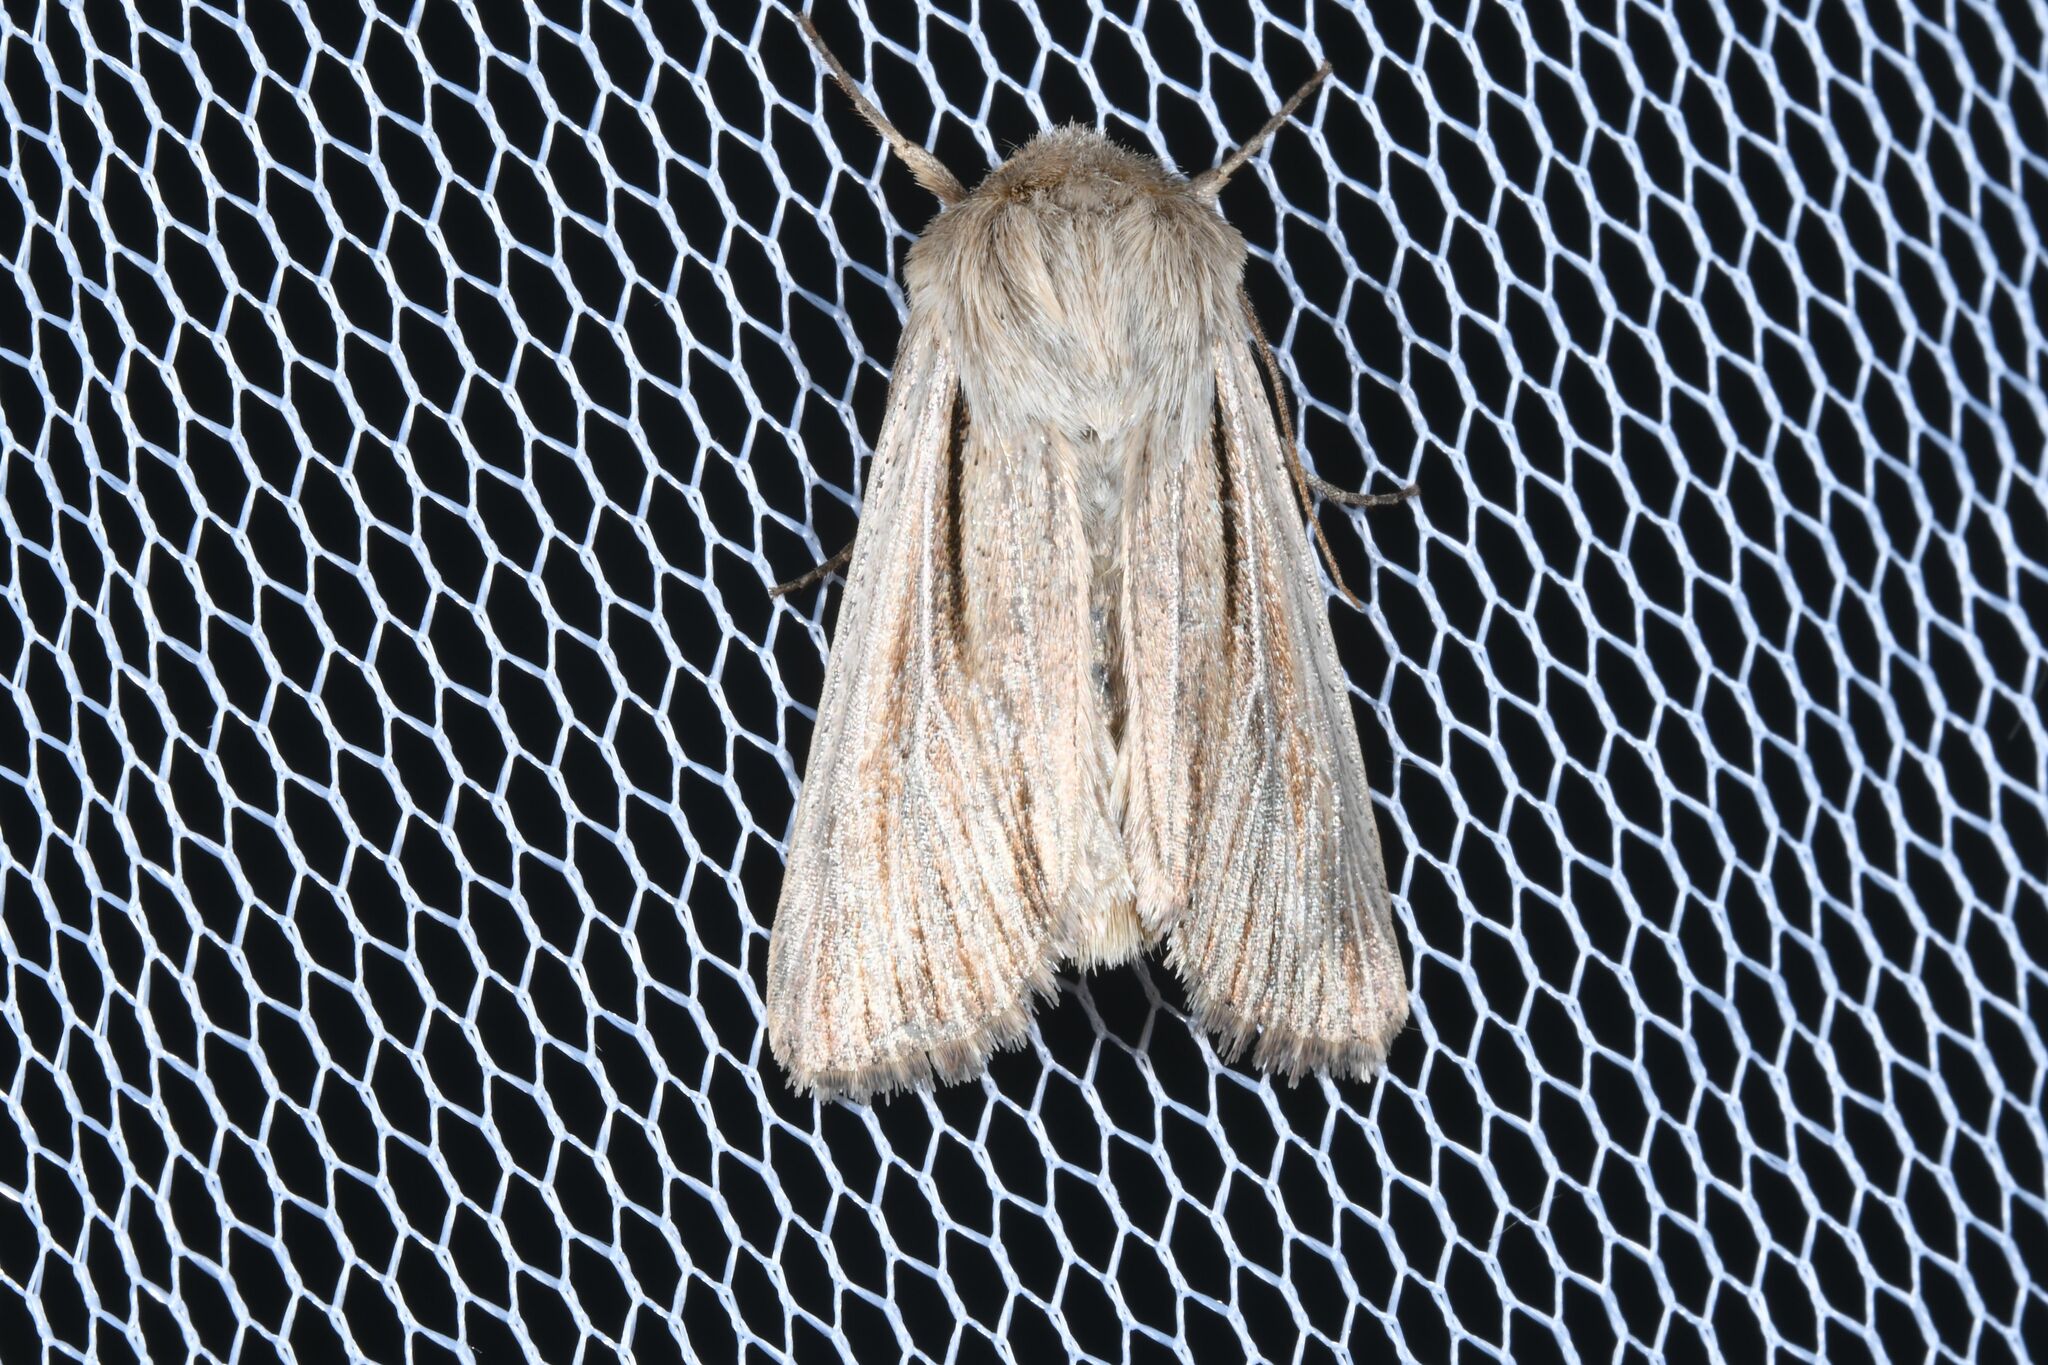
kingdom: Animalia
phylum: Arthropoda
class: Insecta
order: Lepidoptera
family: Noctuidae
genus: Leucania
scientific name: Leucania comma
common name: Shoulder-striped wainscot
